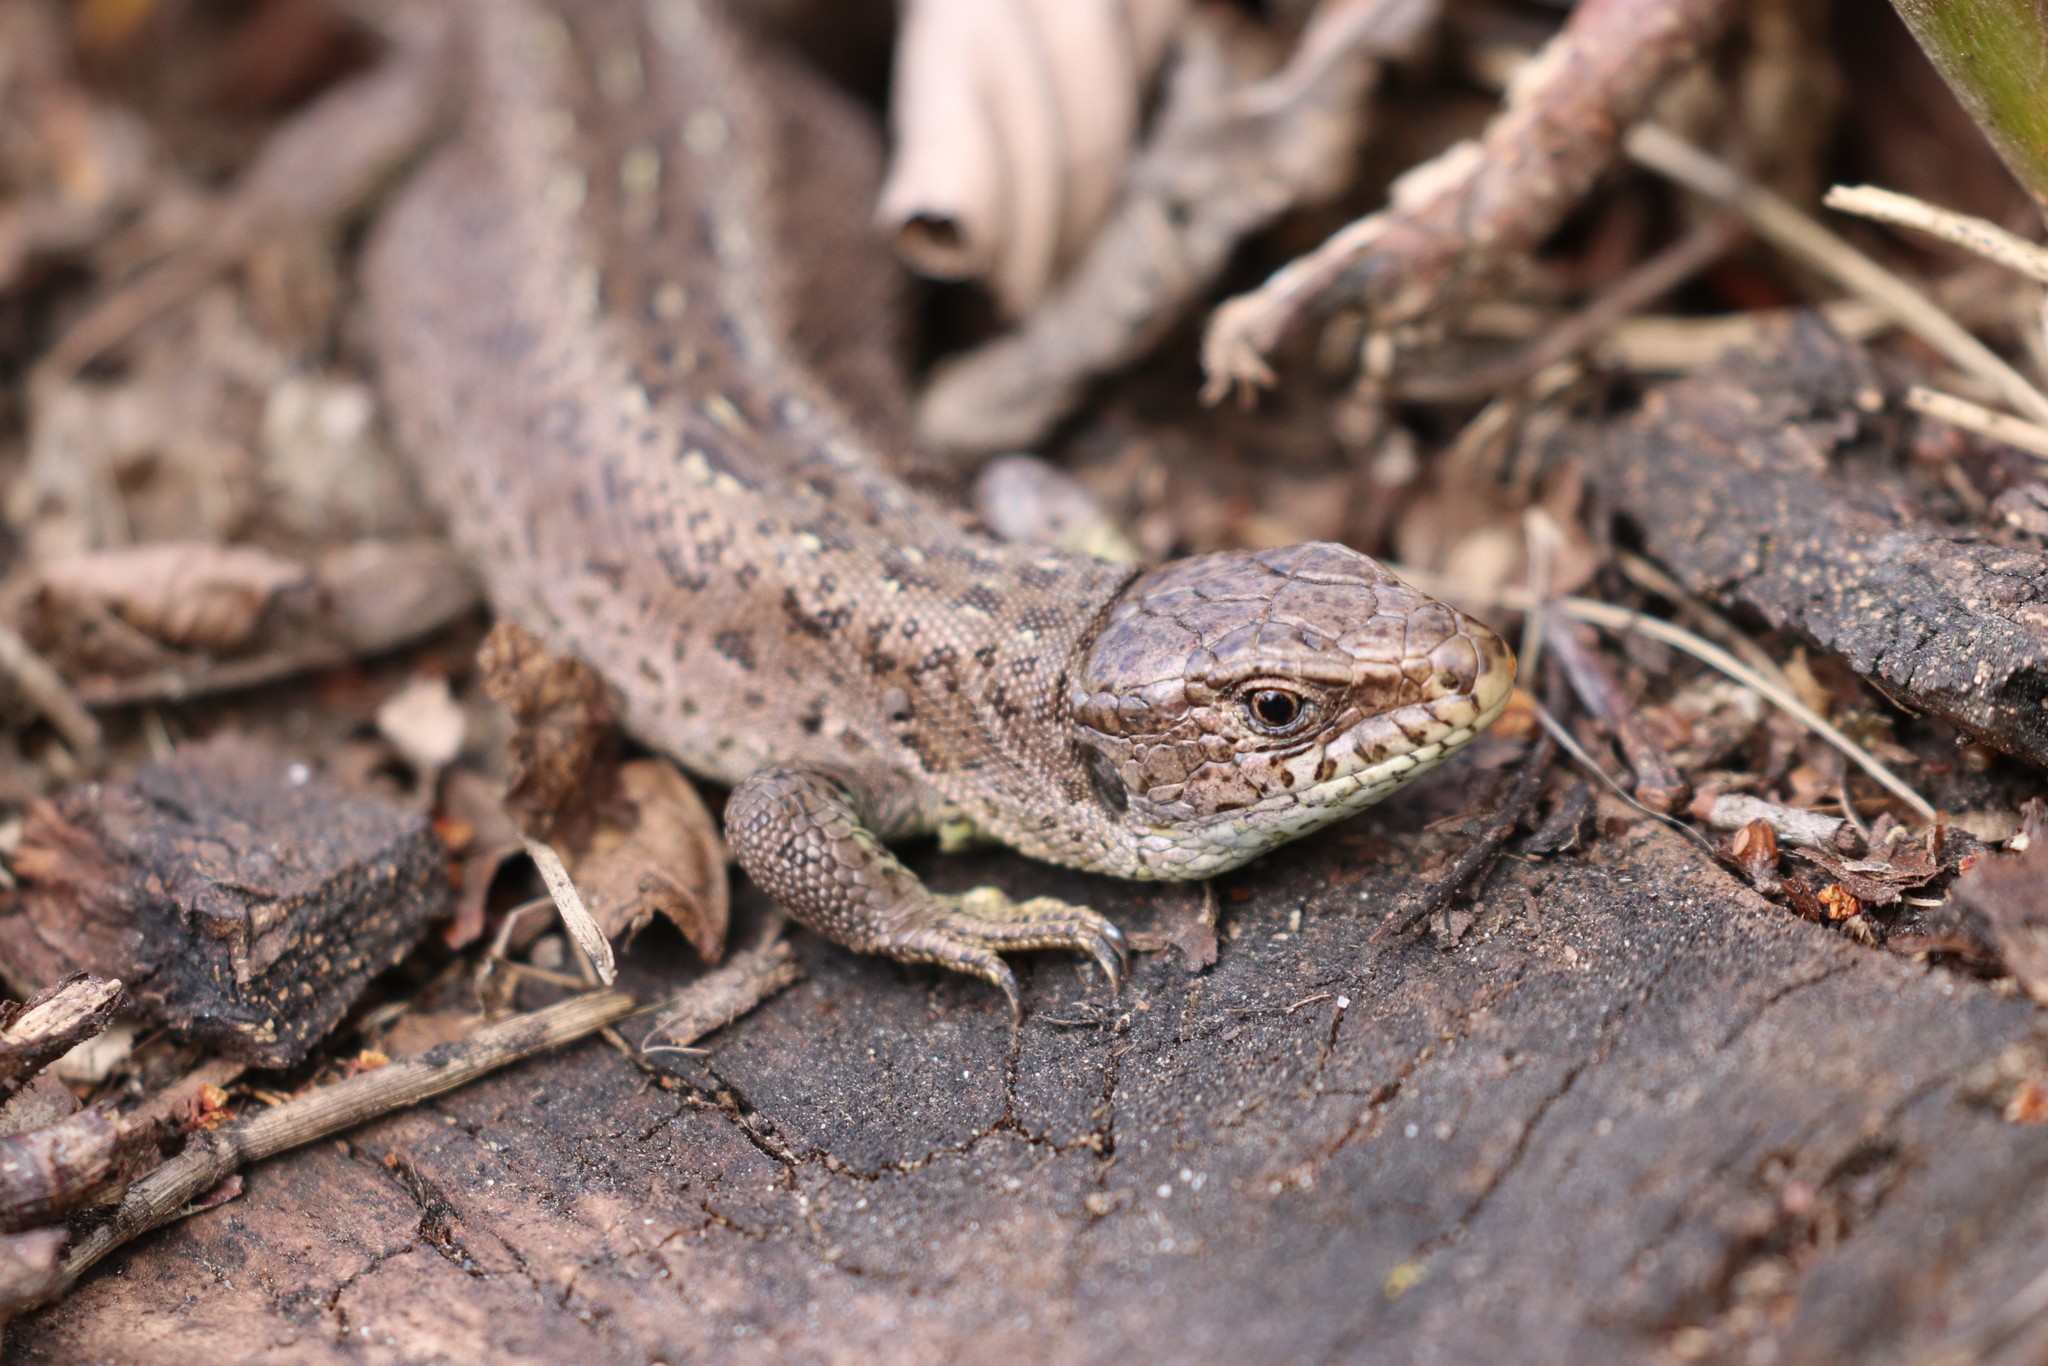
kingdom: Animalia
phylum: Chordata
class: Squamata
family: Lacertidae
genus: Lacerta
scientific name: Lacerta agilis
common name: Sand lizard
